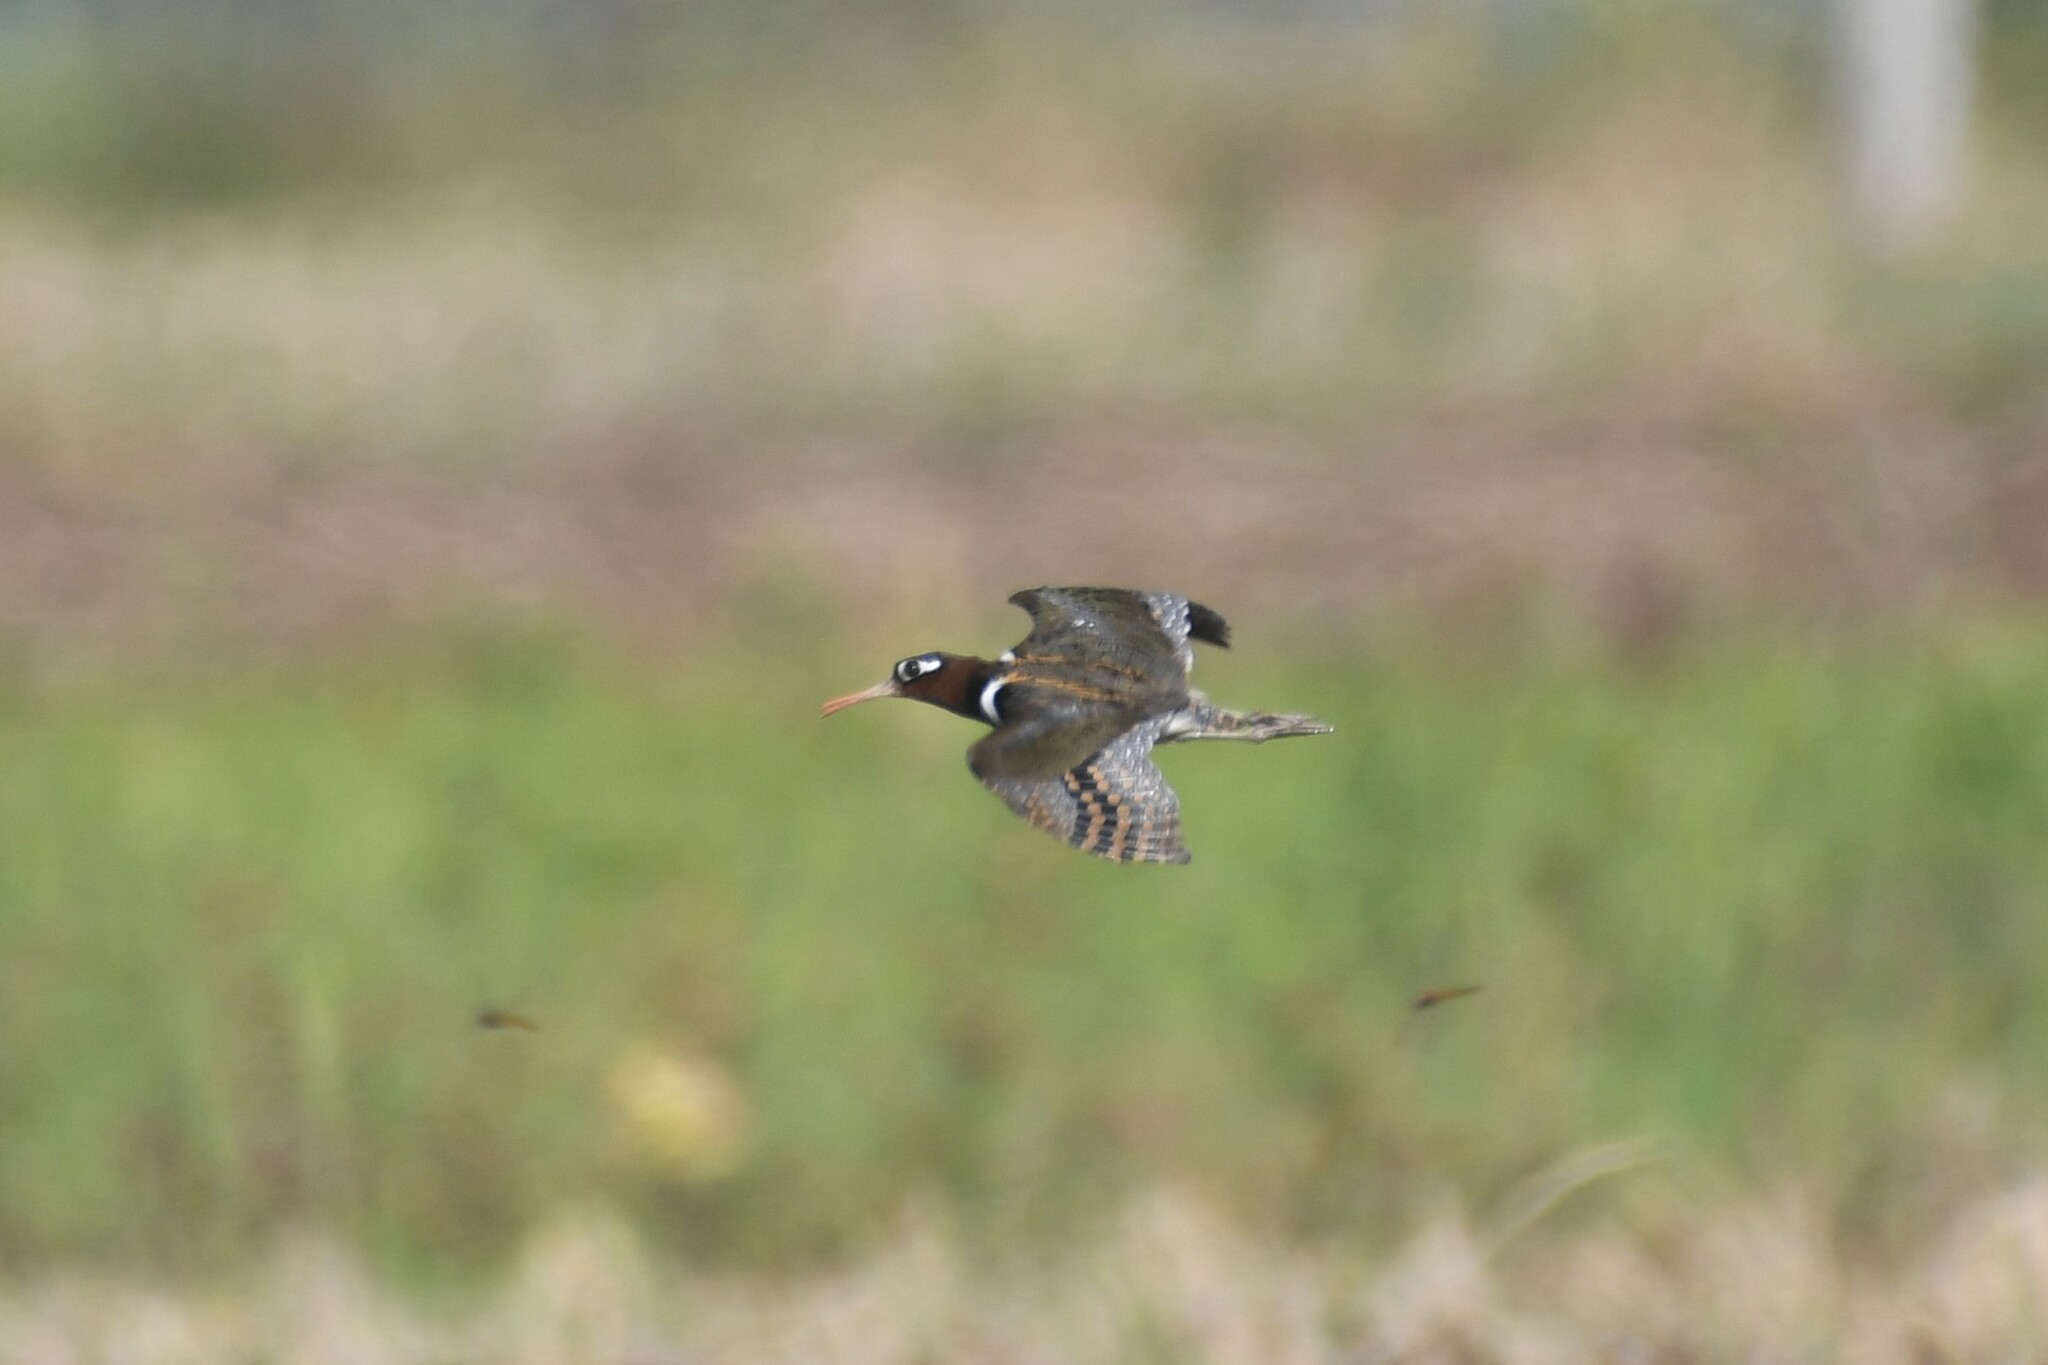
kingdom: Animalia
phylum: Chordata
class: Aves
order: Charadriiformes
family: Rostratulidae
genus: Rostratula
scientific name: Rostratula benghalensis
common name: Greater painted-snipe
